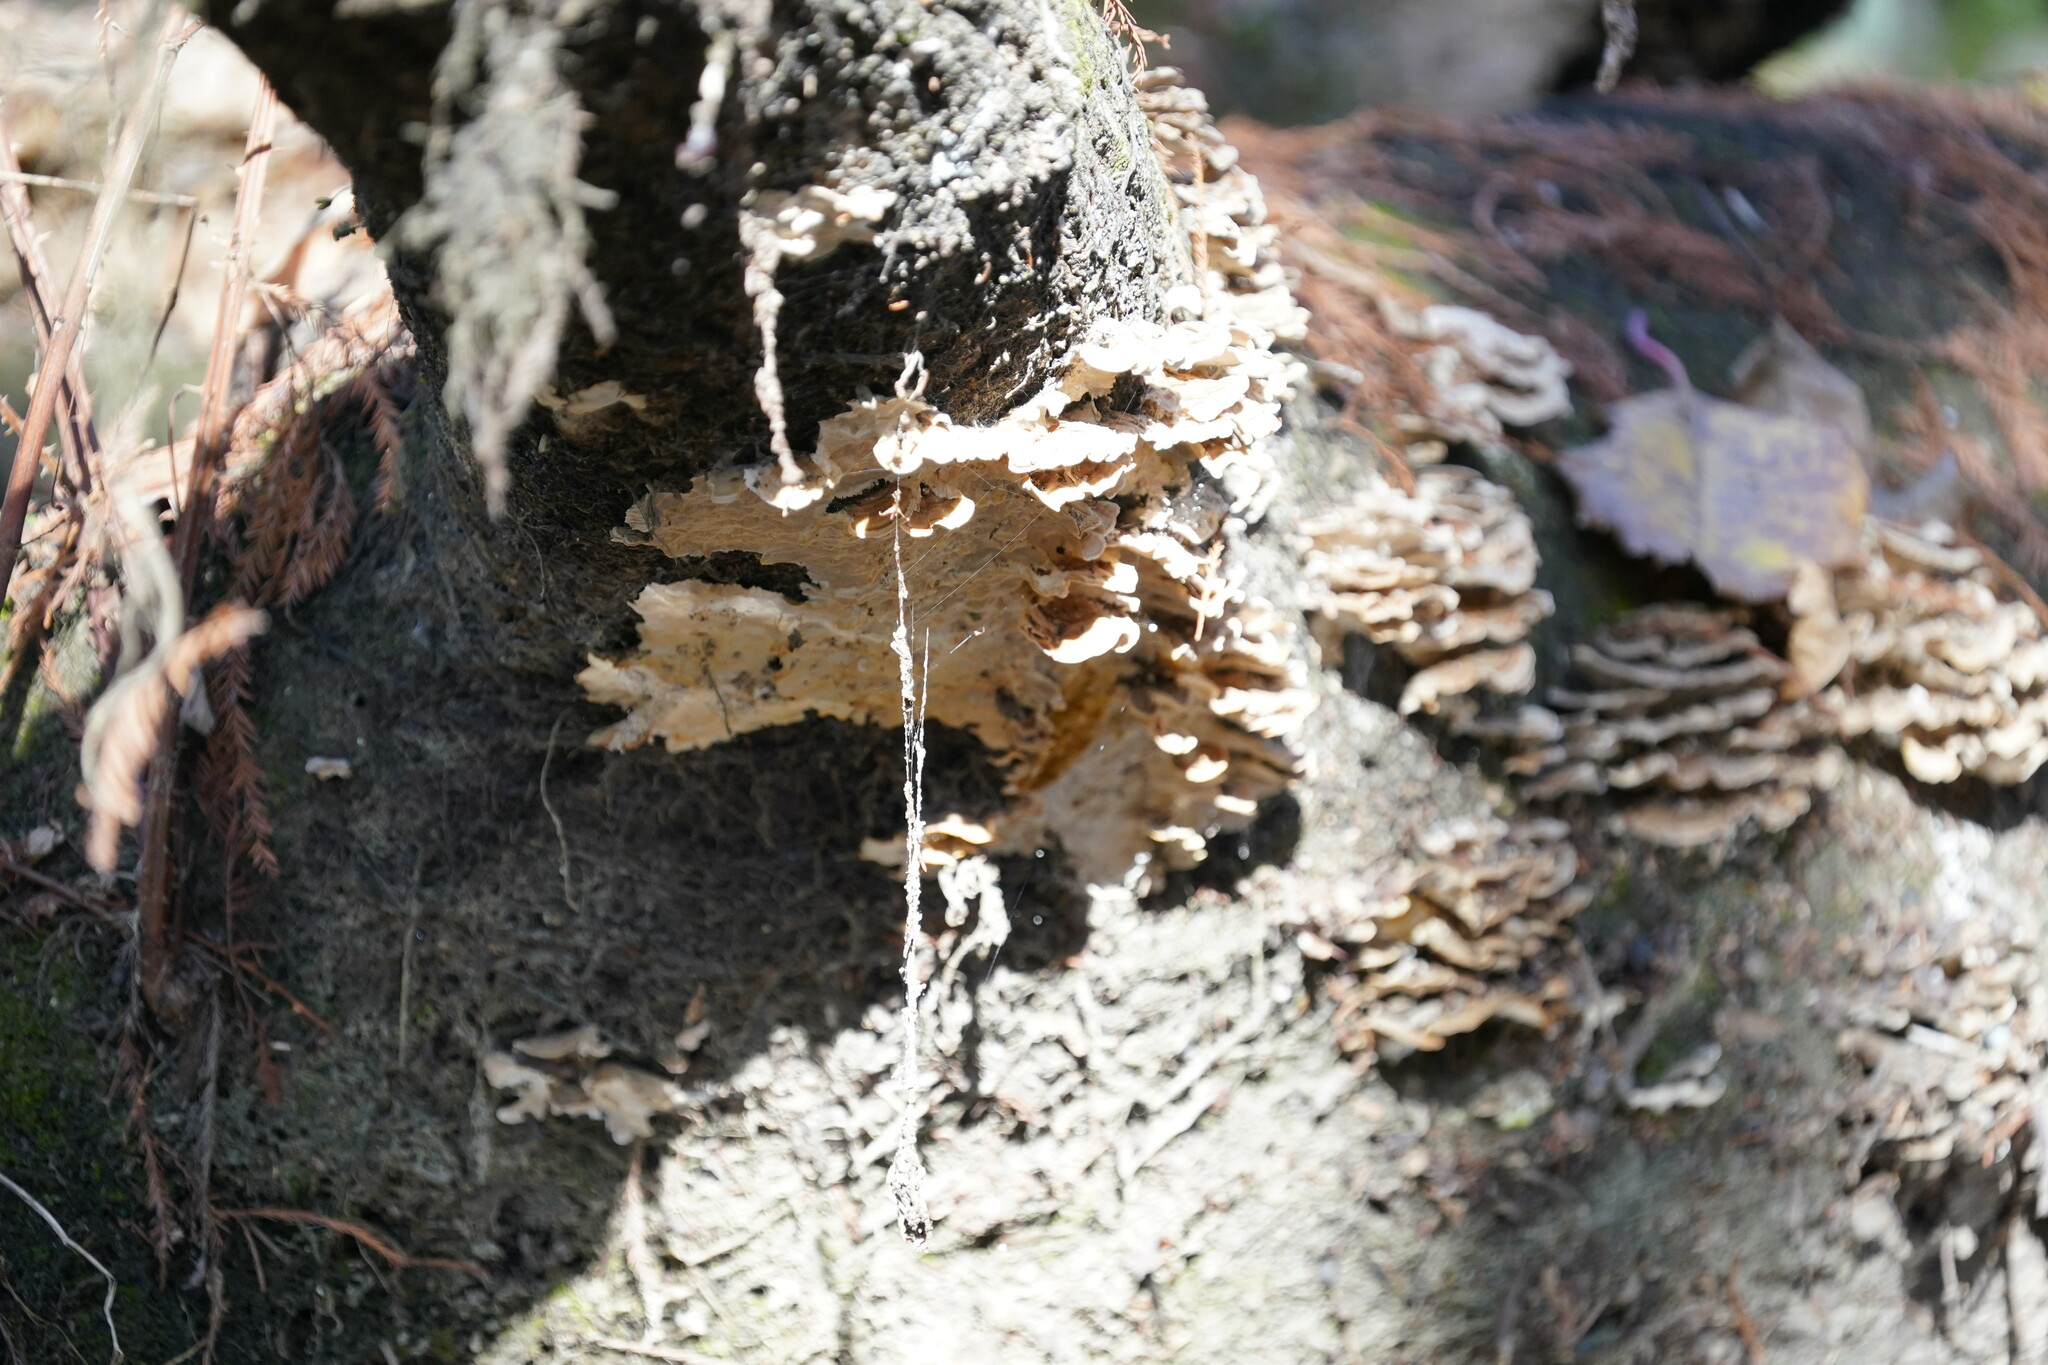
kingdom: Fungi
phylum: Basidiomycota
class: Agaricomycetes
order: Russulales
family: Stereaceae
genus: Xylobolus
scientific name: Xylobolus subpileatus
